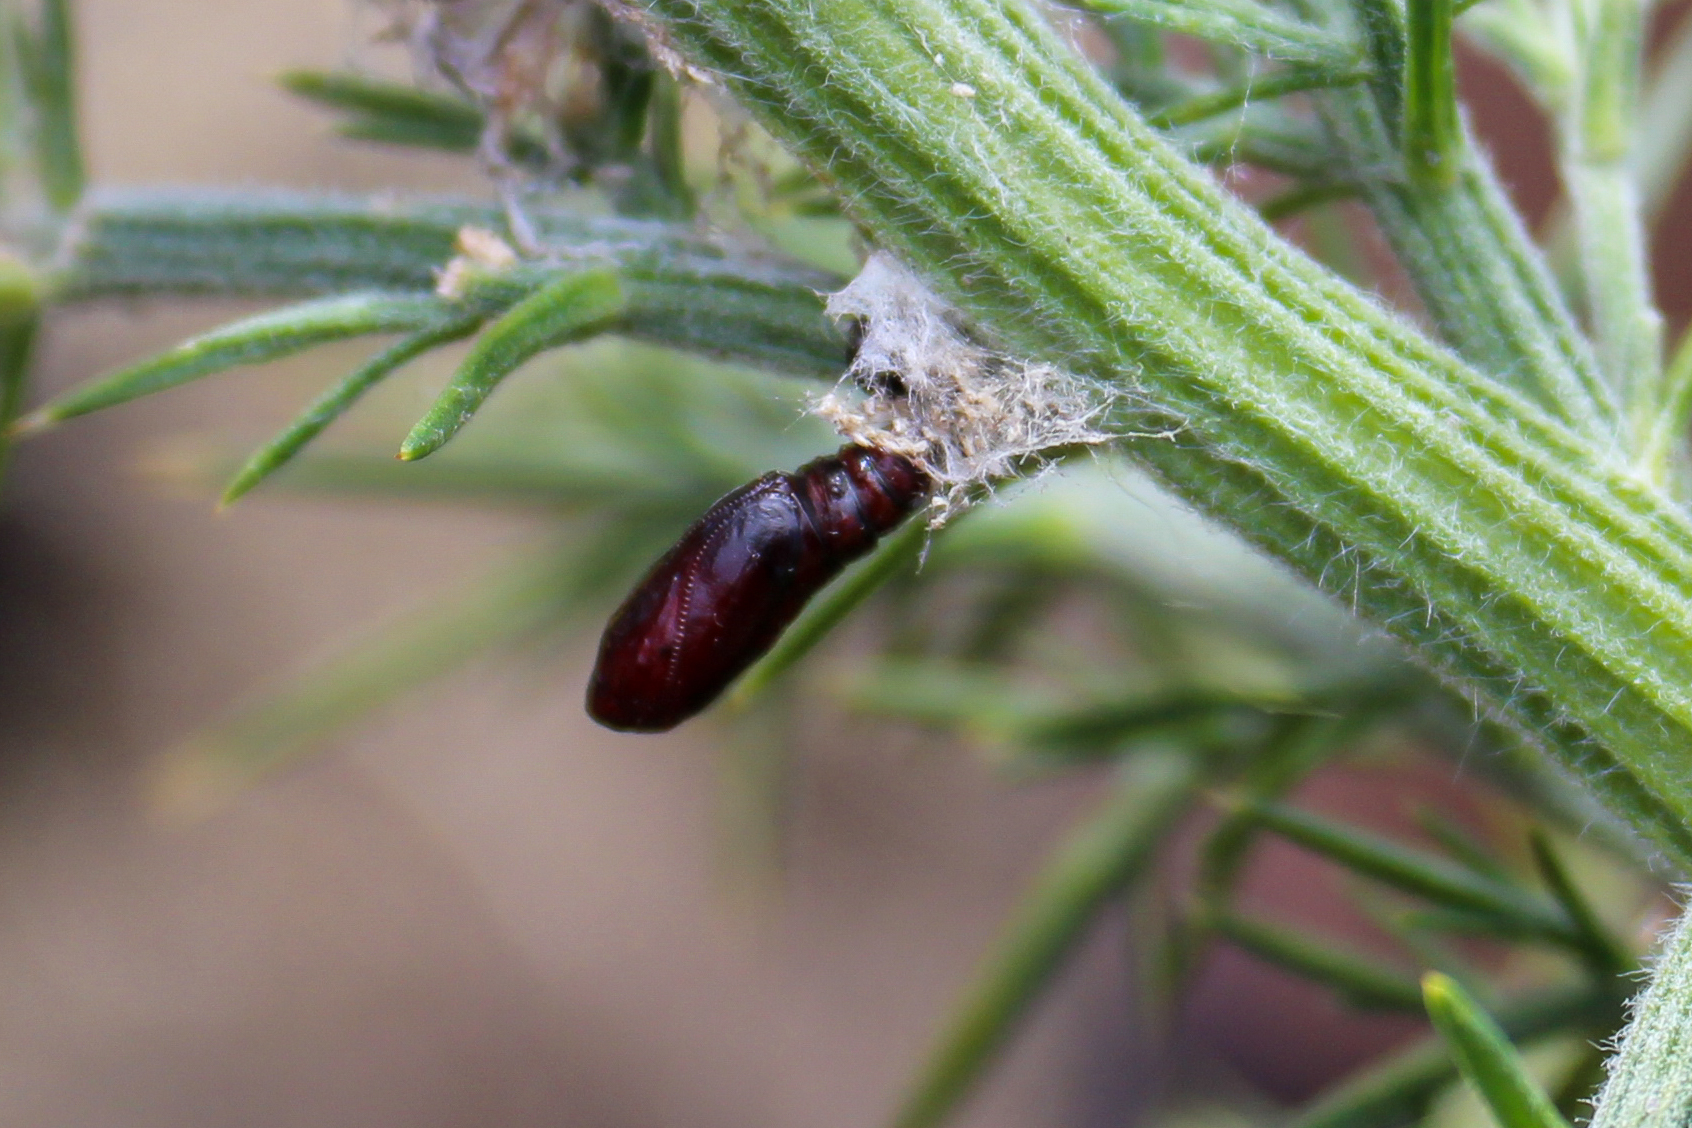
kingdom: Animalia
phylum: Arthropoda
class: Insecta
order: Lepidoptera
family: Depressariidae
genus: Agonopterix
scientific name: Agonopterix
